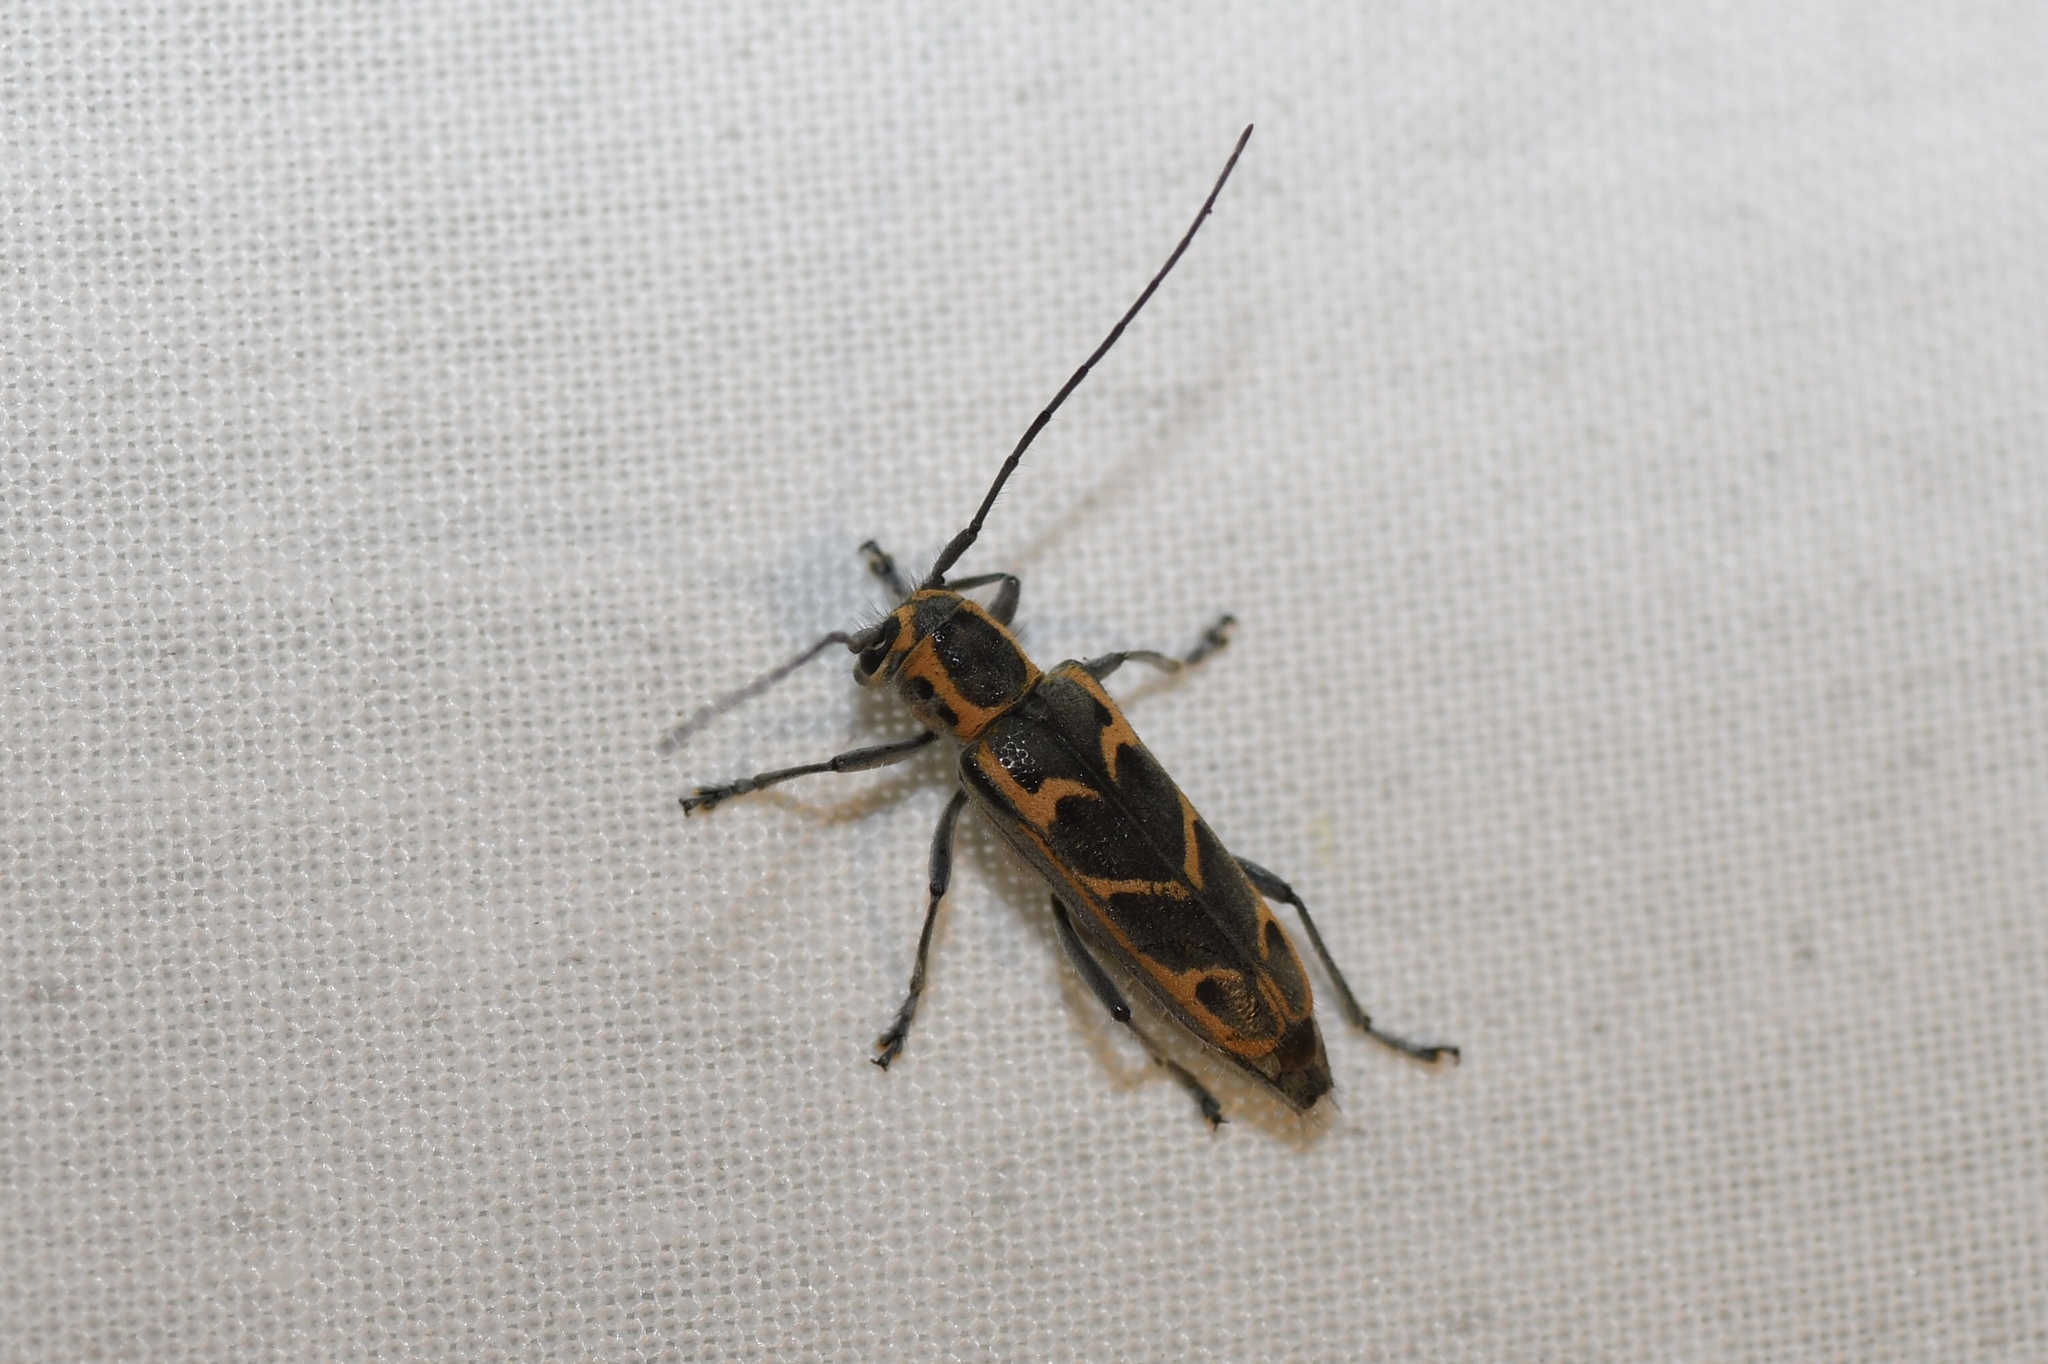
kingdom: Animalia
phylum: Arthropoda
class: Insecta
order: Coleoptera
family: Cerambycidae
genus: Saperda
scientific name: Saperda tridentata
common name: Elm borer
